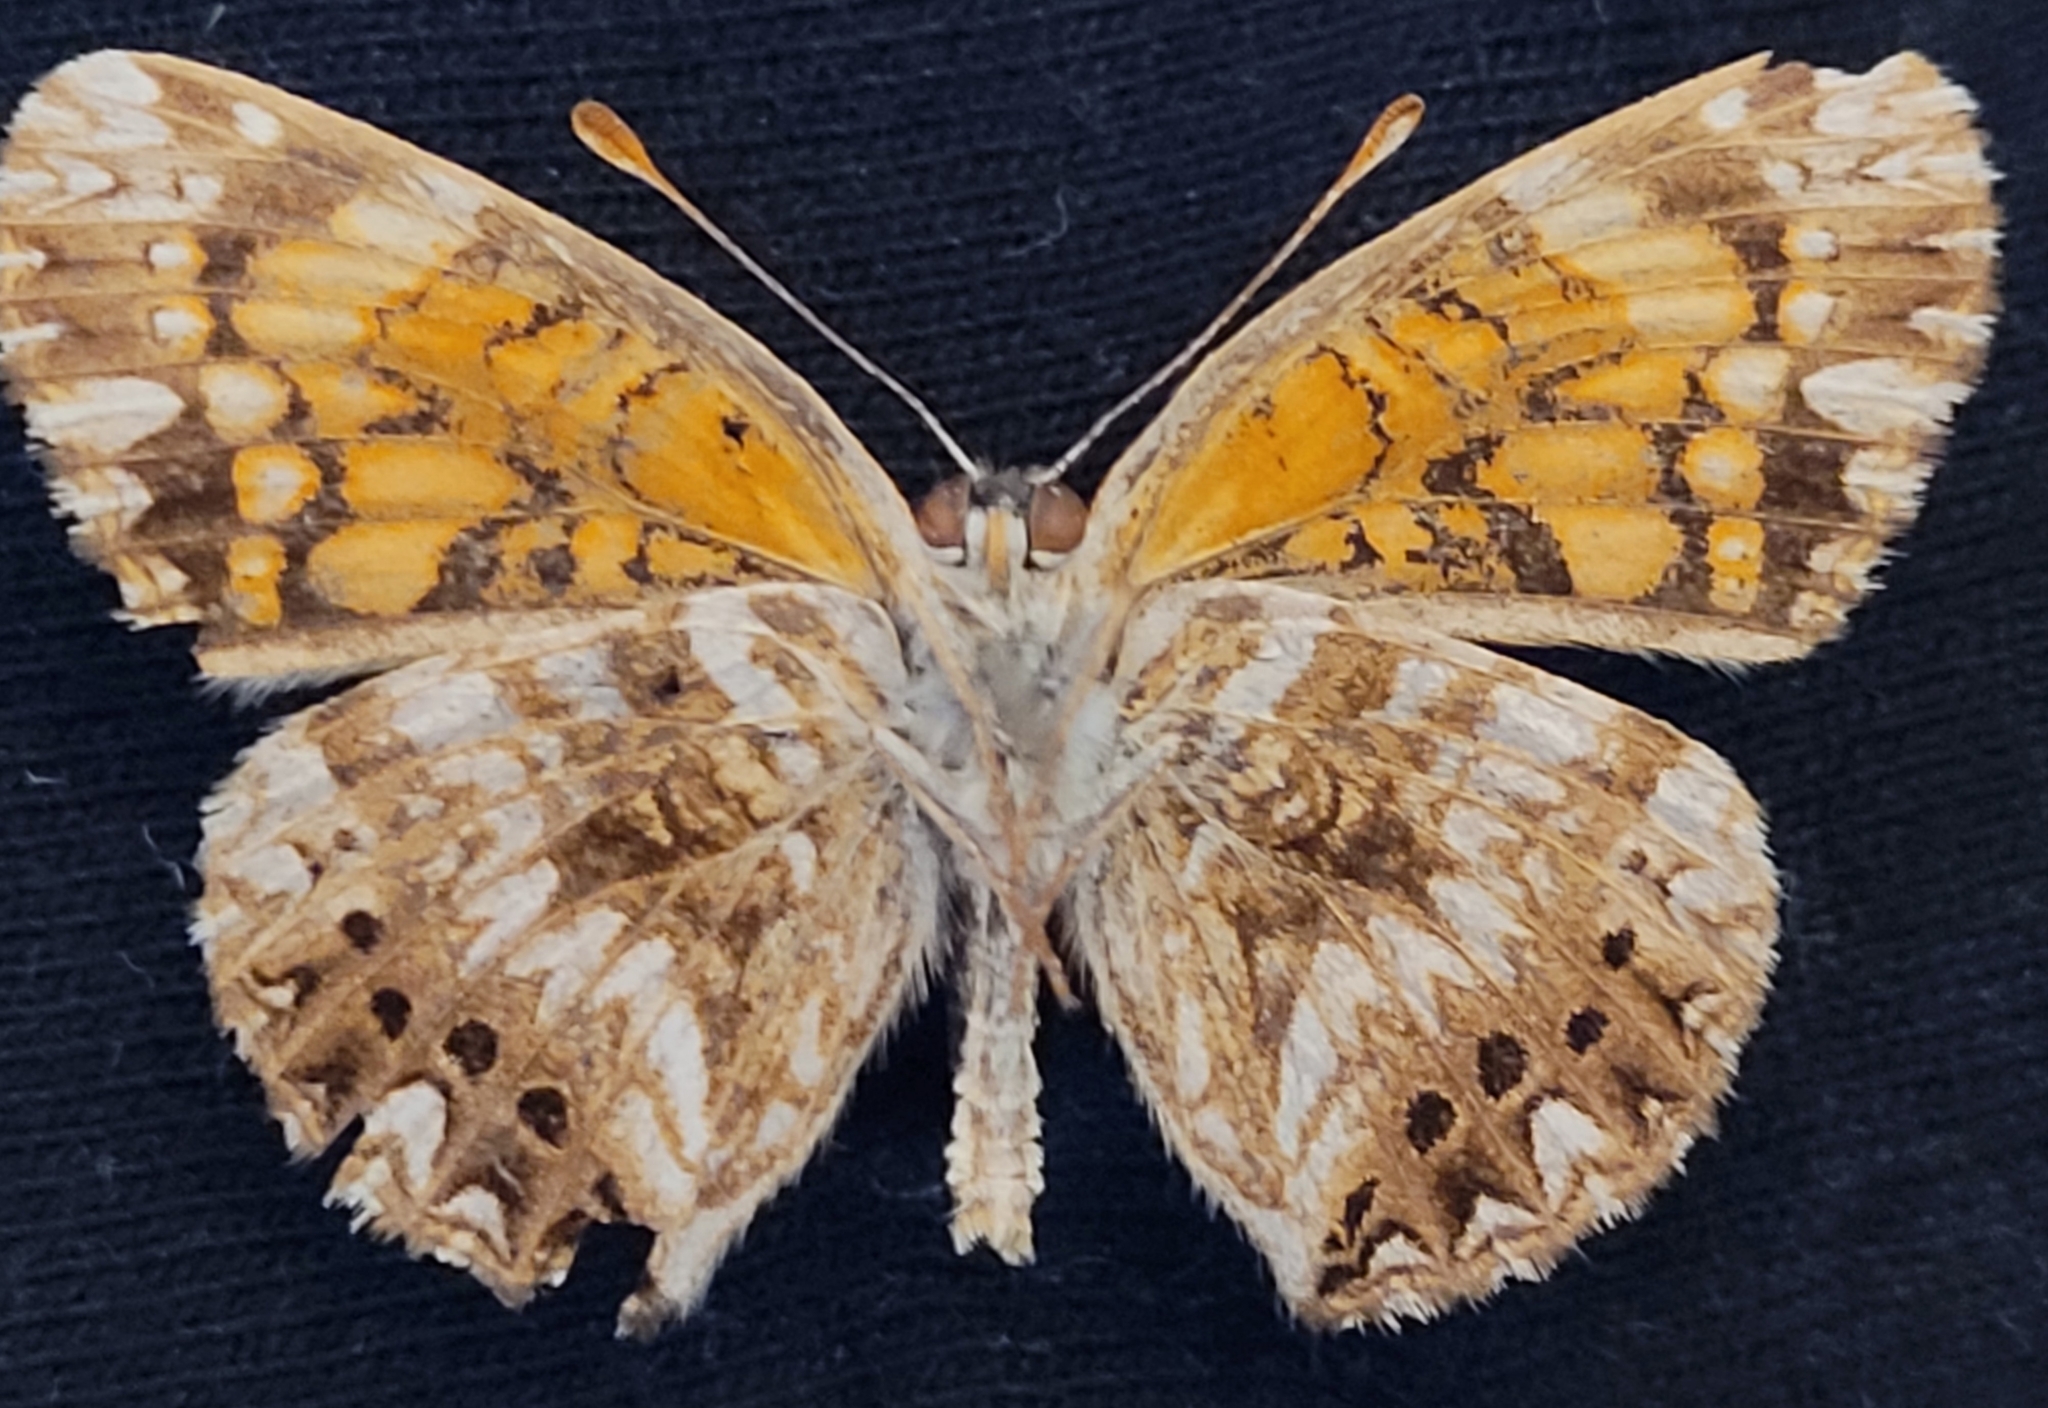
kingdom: Animalia
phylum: Arthropoda
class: Insecta
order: Lepidoptera
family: Nymphalidae
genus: Chlosyne
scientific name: Chlosyne gorgone
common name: Gorgone checkerspot
